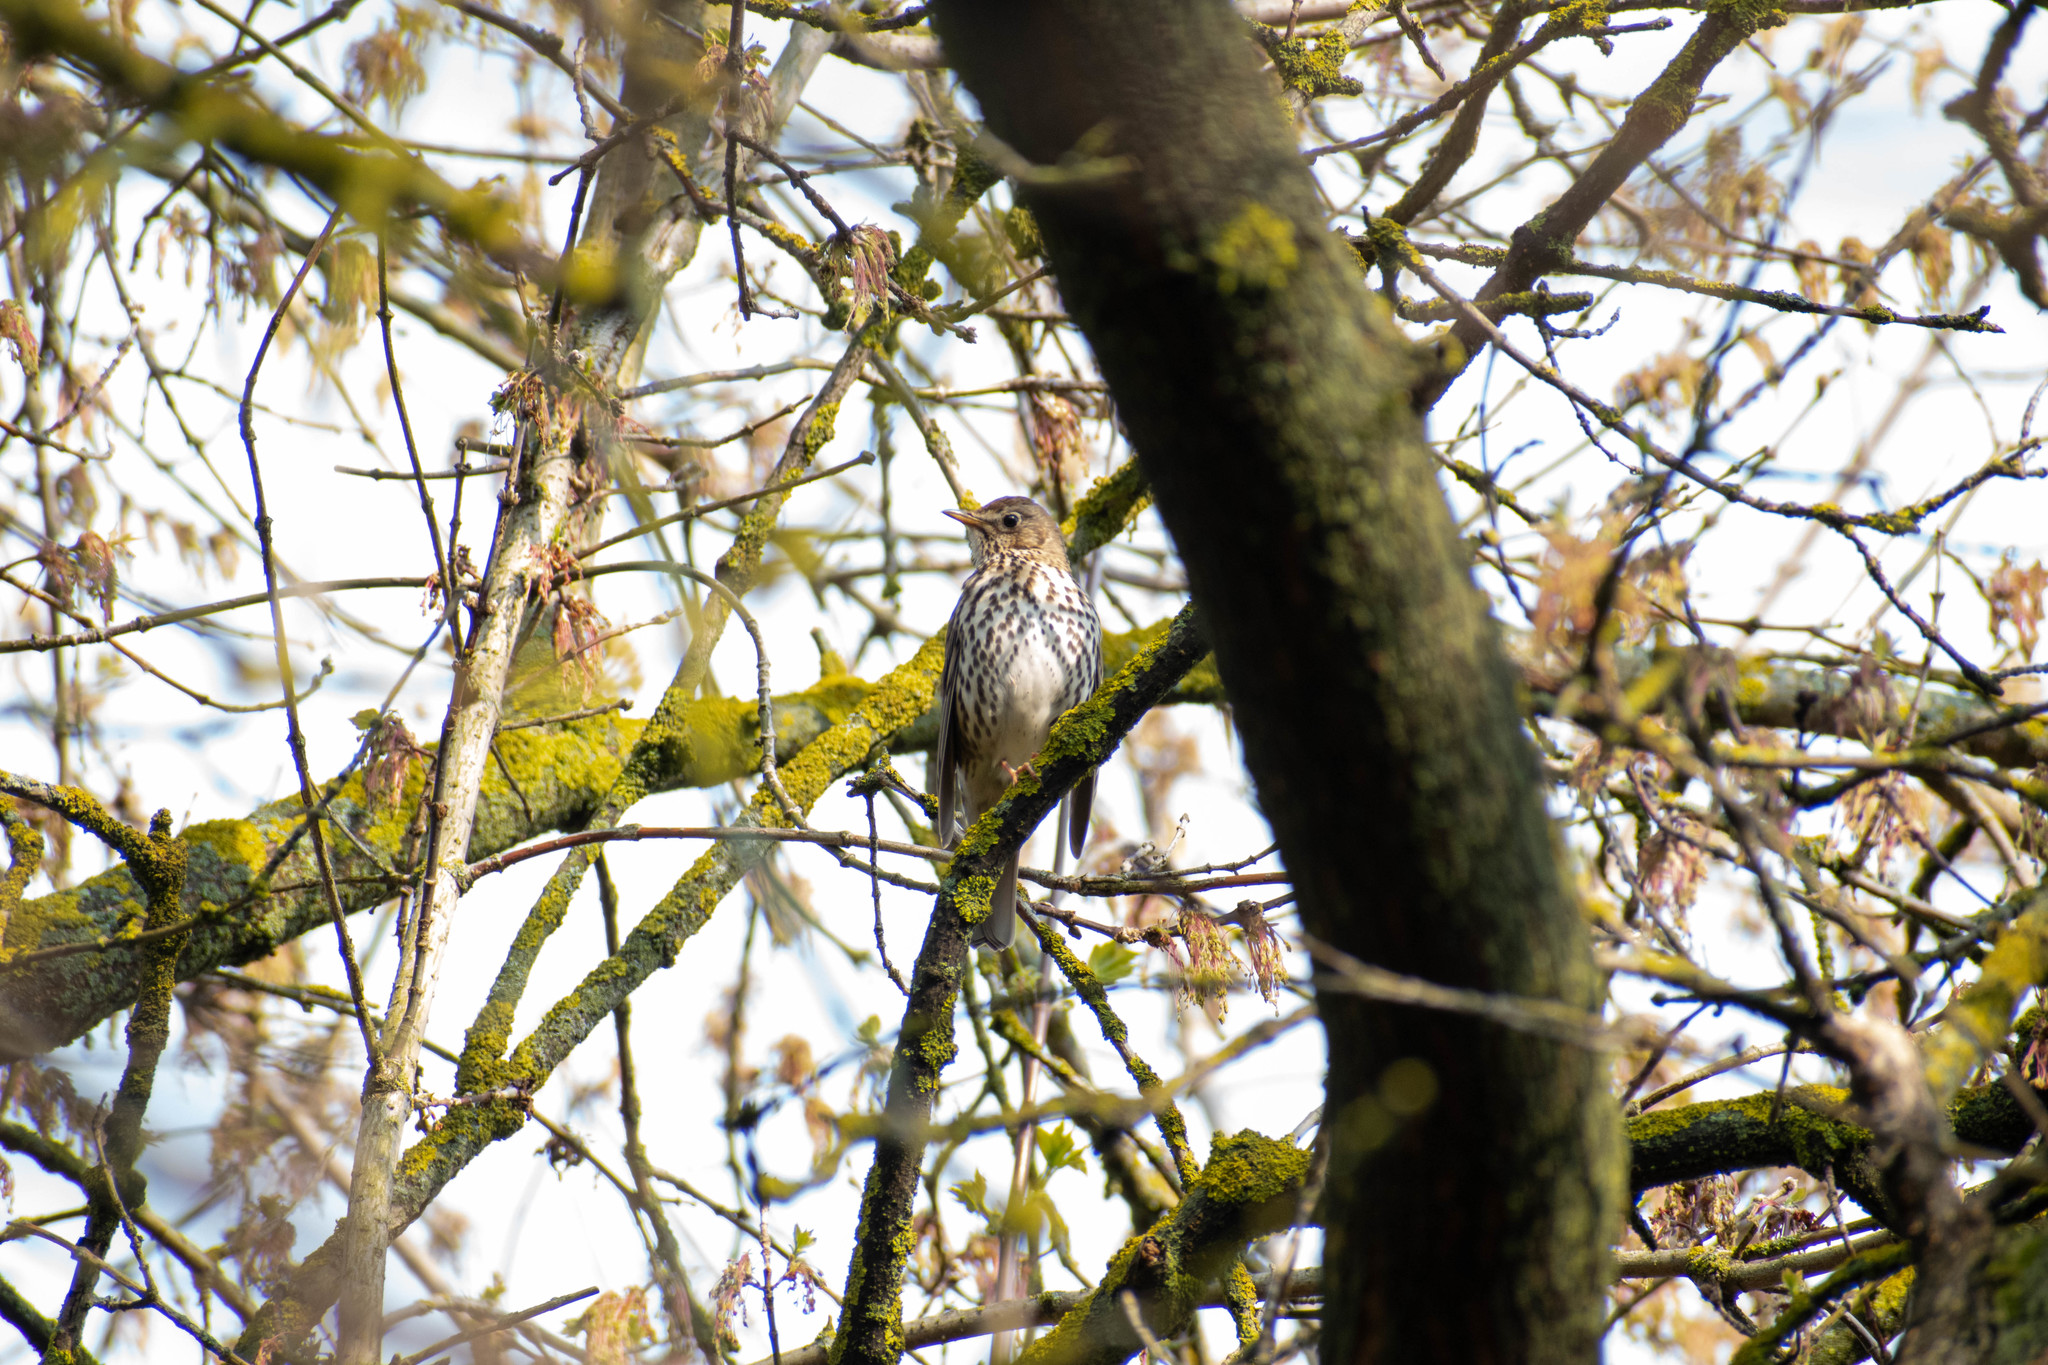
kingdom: Animalia
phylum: Chordata
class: Aves
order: Passeriformes
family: Turdidae
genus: Turdus
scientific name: Turdus philomelos
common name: Song thrush
